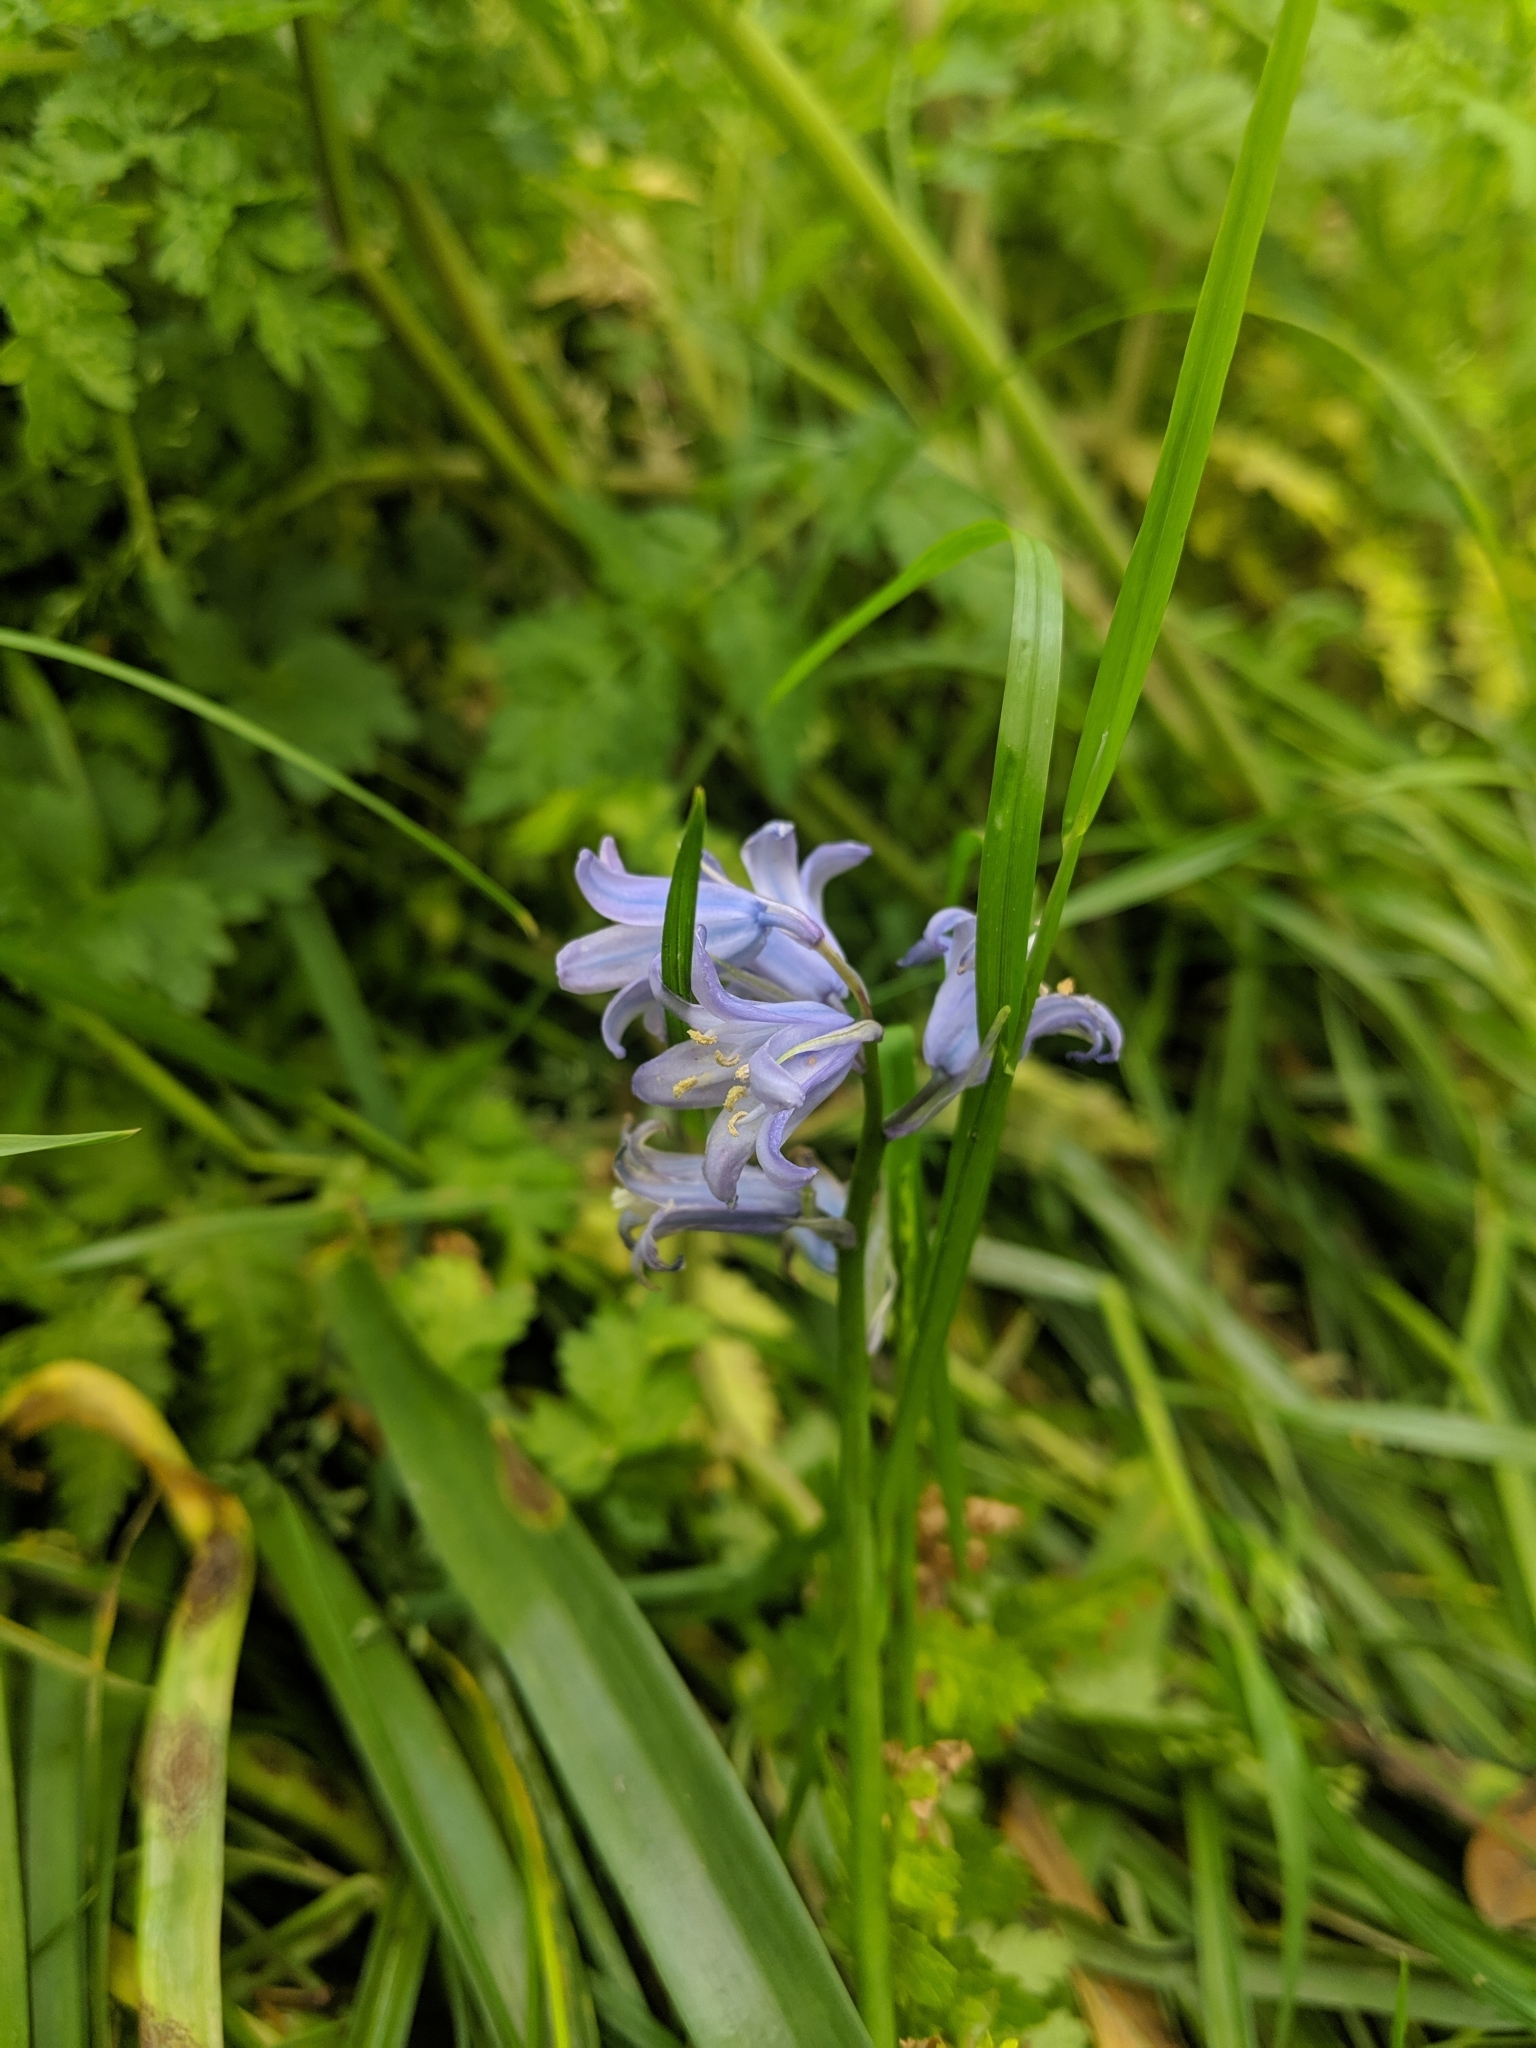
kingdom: Fungi
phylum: Basidiomycota
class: Pucciniomycetes
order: Pucciniales
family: Pucciniaceae
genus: Uromyces
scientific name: Uromyces hyacinthi
